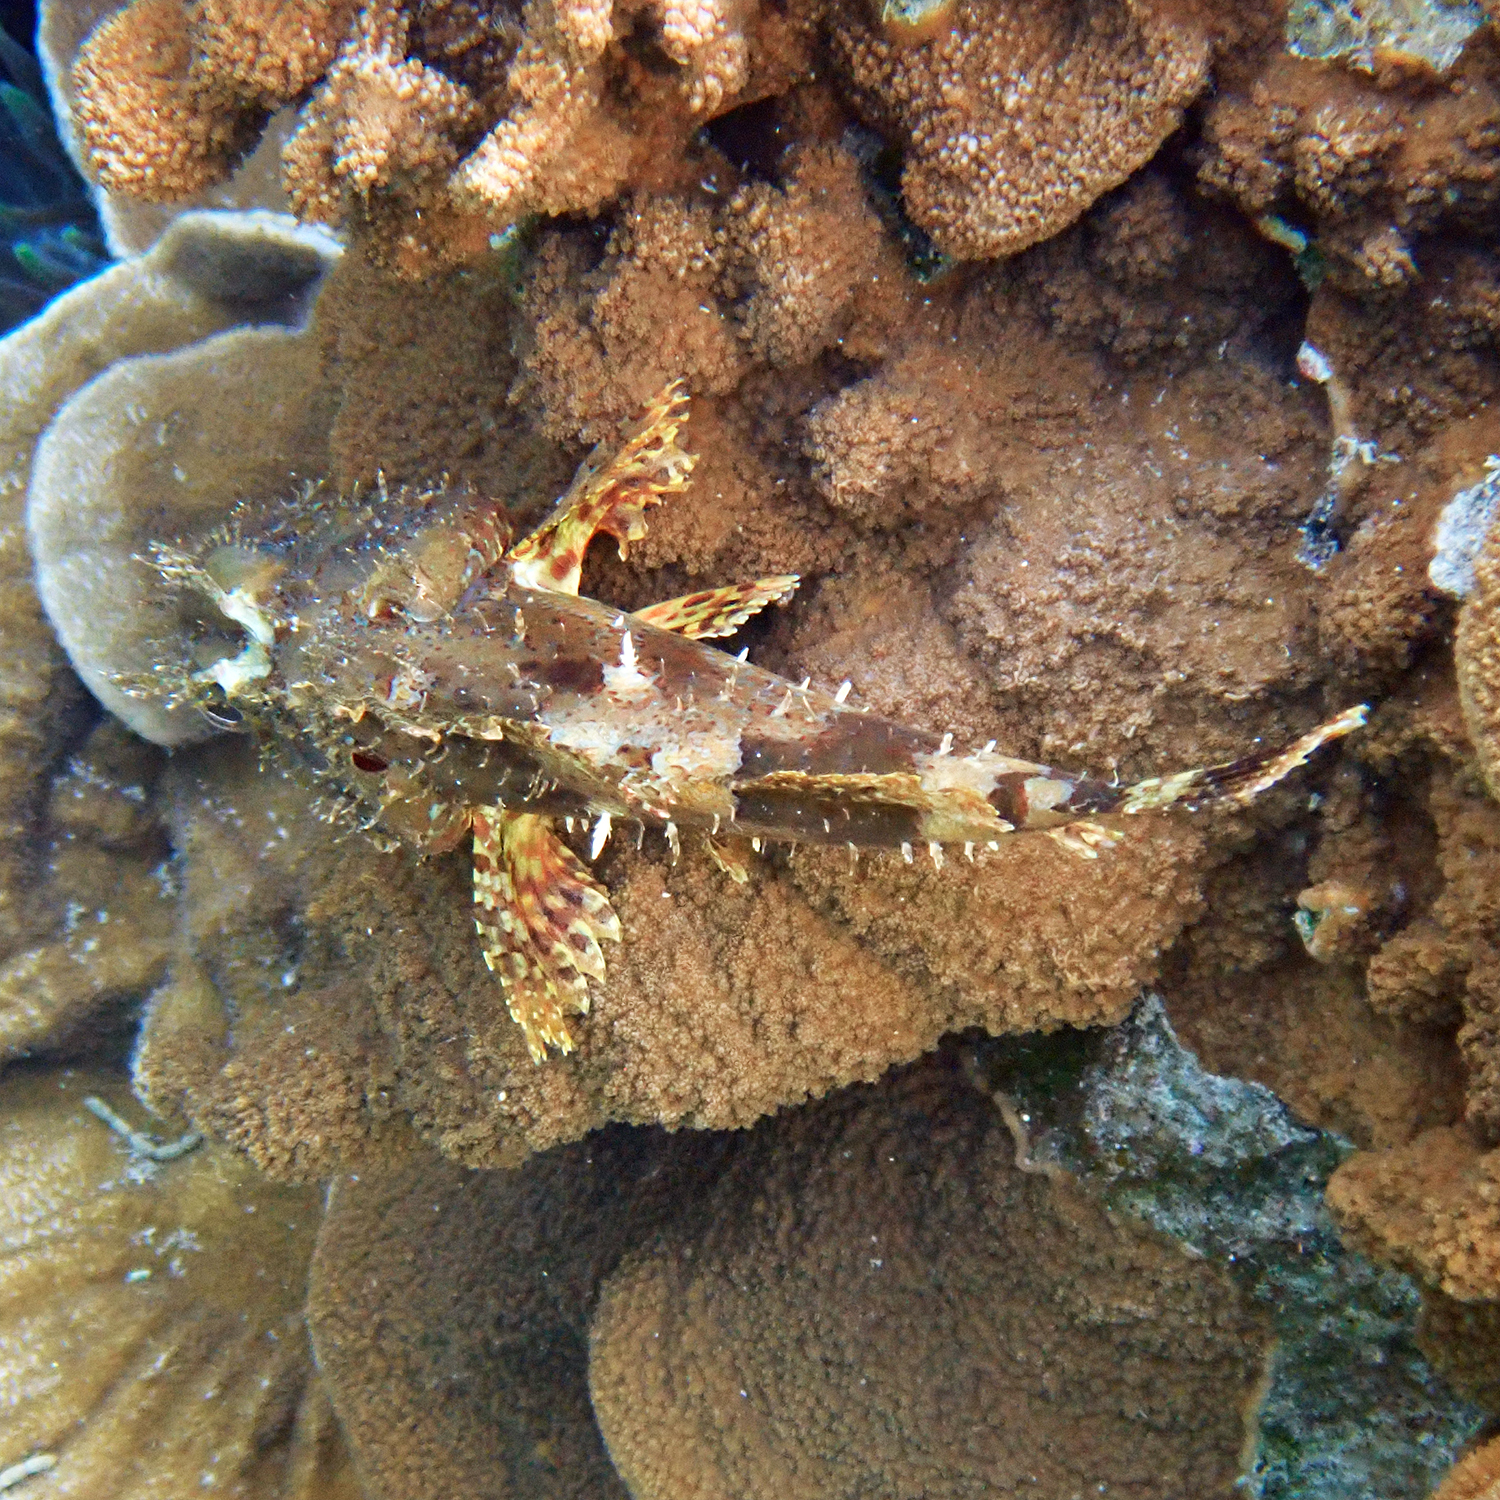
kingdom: Animalia
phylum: Chordata
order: Scorpaeniformes
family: Scorpaenidae
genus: Scorpaena
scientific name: Scorpaena cardinalis
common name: Cardinal scorpionfish
